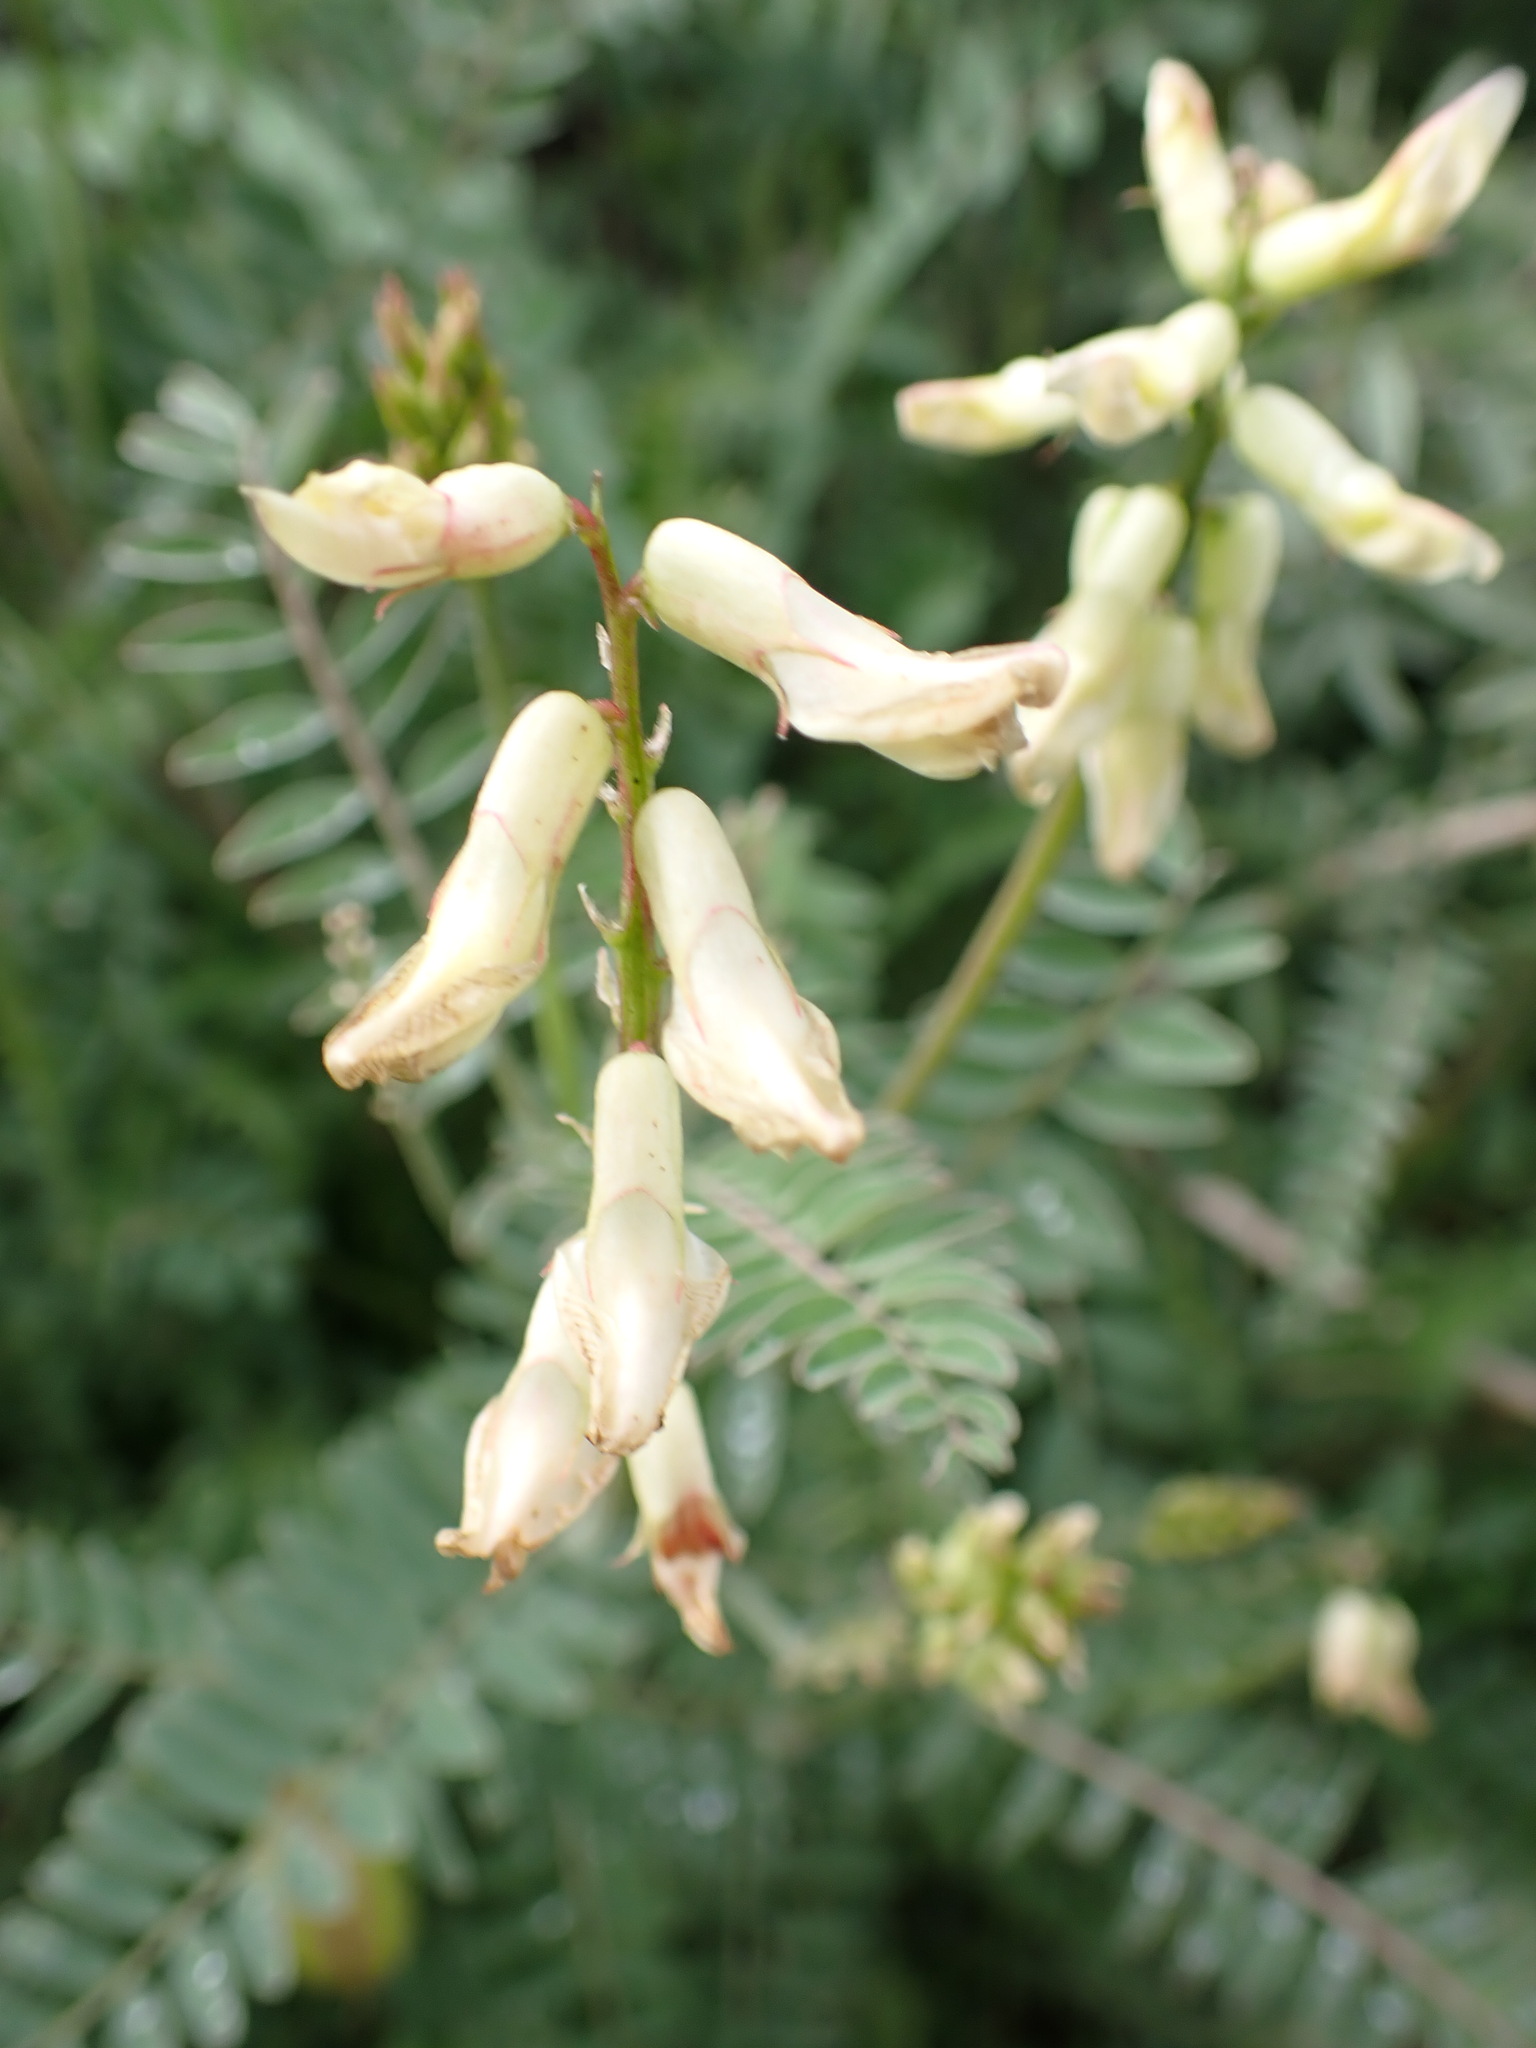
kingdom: Plantae
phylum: Tracheophyta
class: Magnoliopsida
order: Fabales
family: Fabaceae
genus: Astragalus
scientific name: Astragalus trichopodus
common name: Santa barbara milk-vetch
